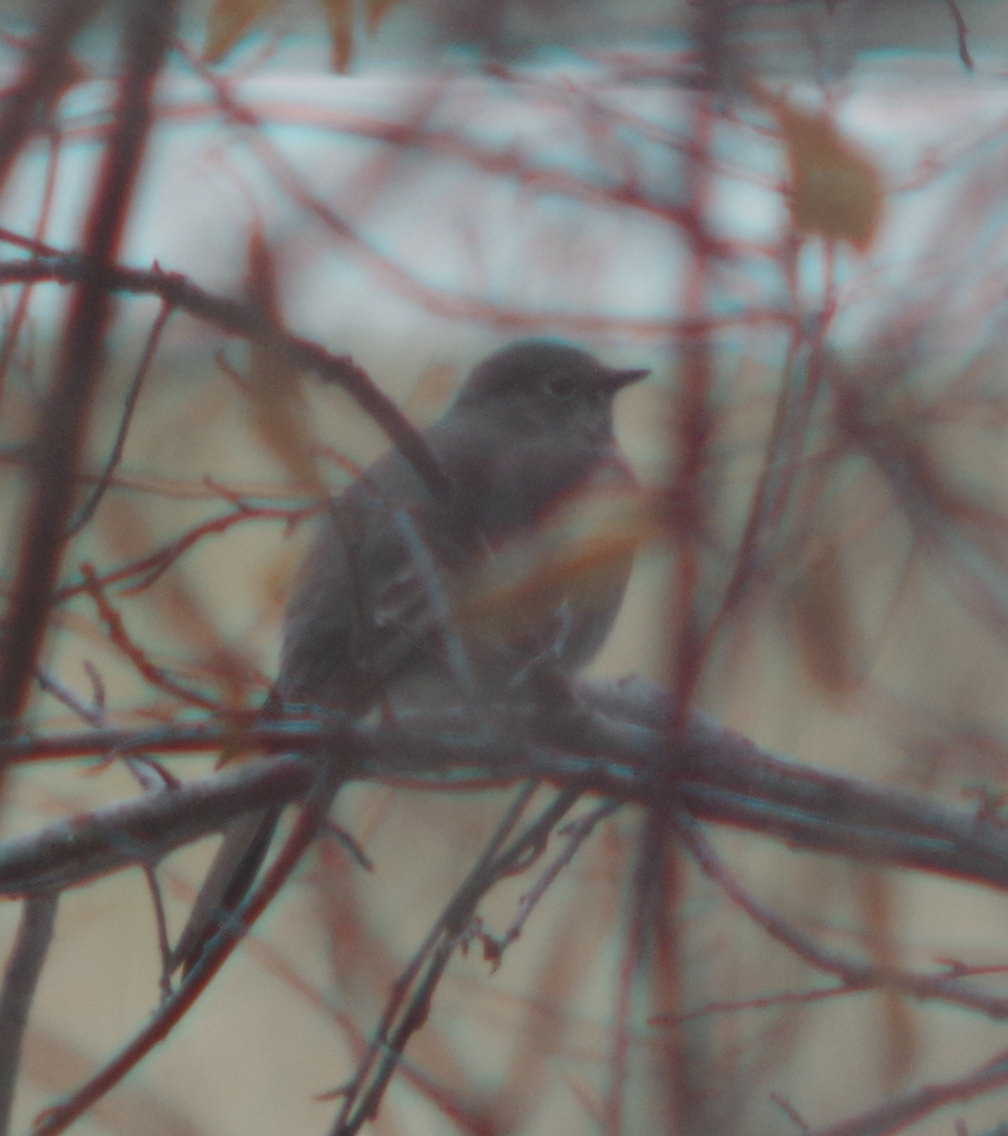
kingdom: Animalia
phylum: Chordata
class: Aves
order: Passeriformes
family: Turdidae
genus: Myadestes
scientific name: Myadestes townsendi
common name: Townsend's solitaire
